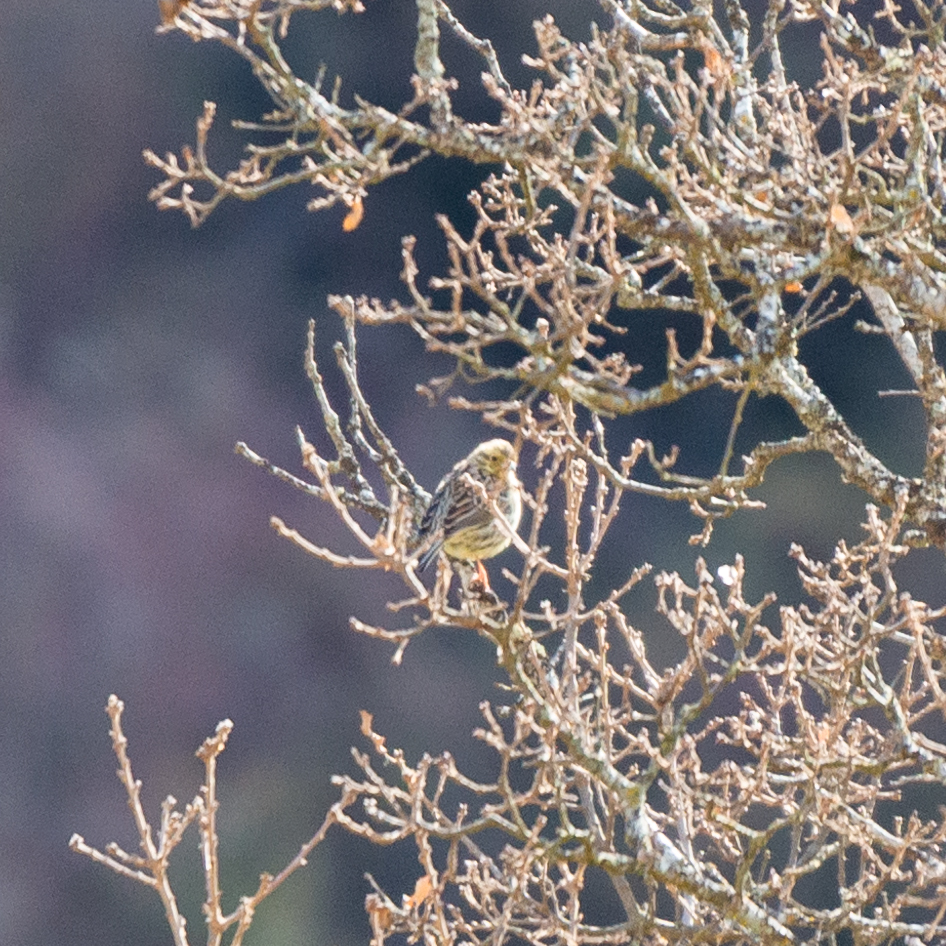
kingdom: Animalia
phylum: Chordata
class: Aves
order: Passeriformes
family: Emberizidae
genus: Emberiza
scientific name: Emberiza cirlus
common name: Cirl bunting
